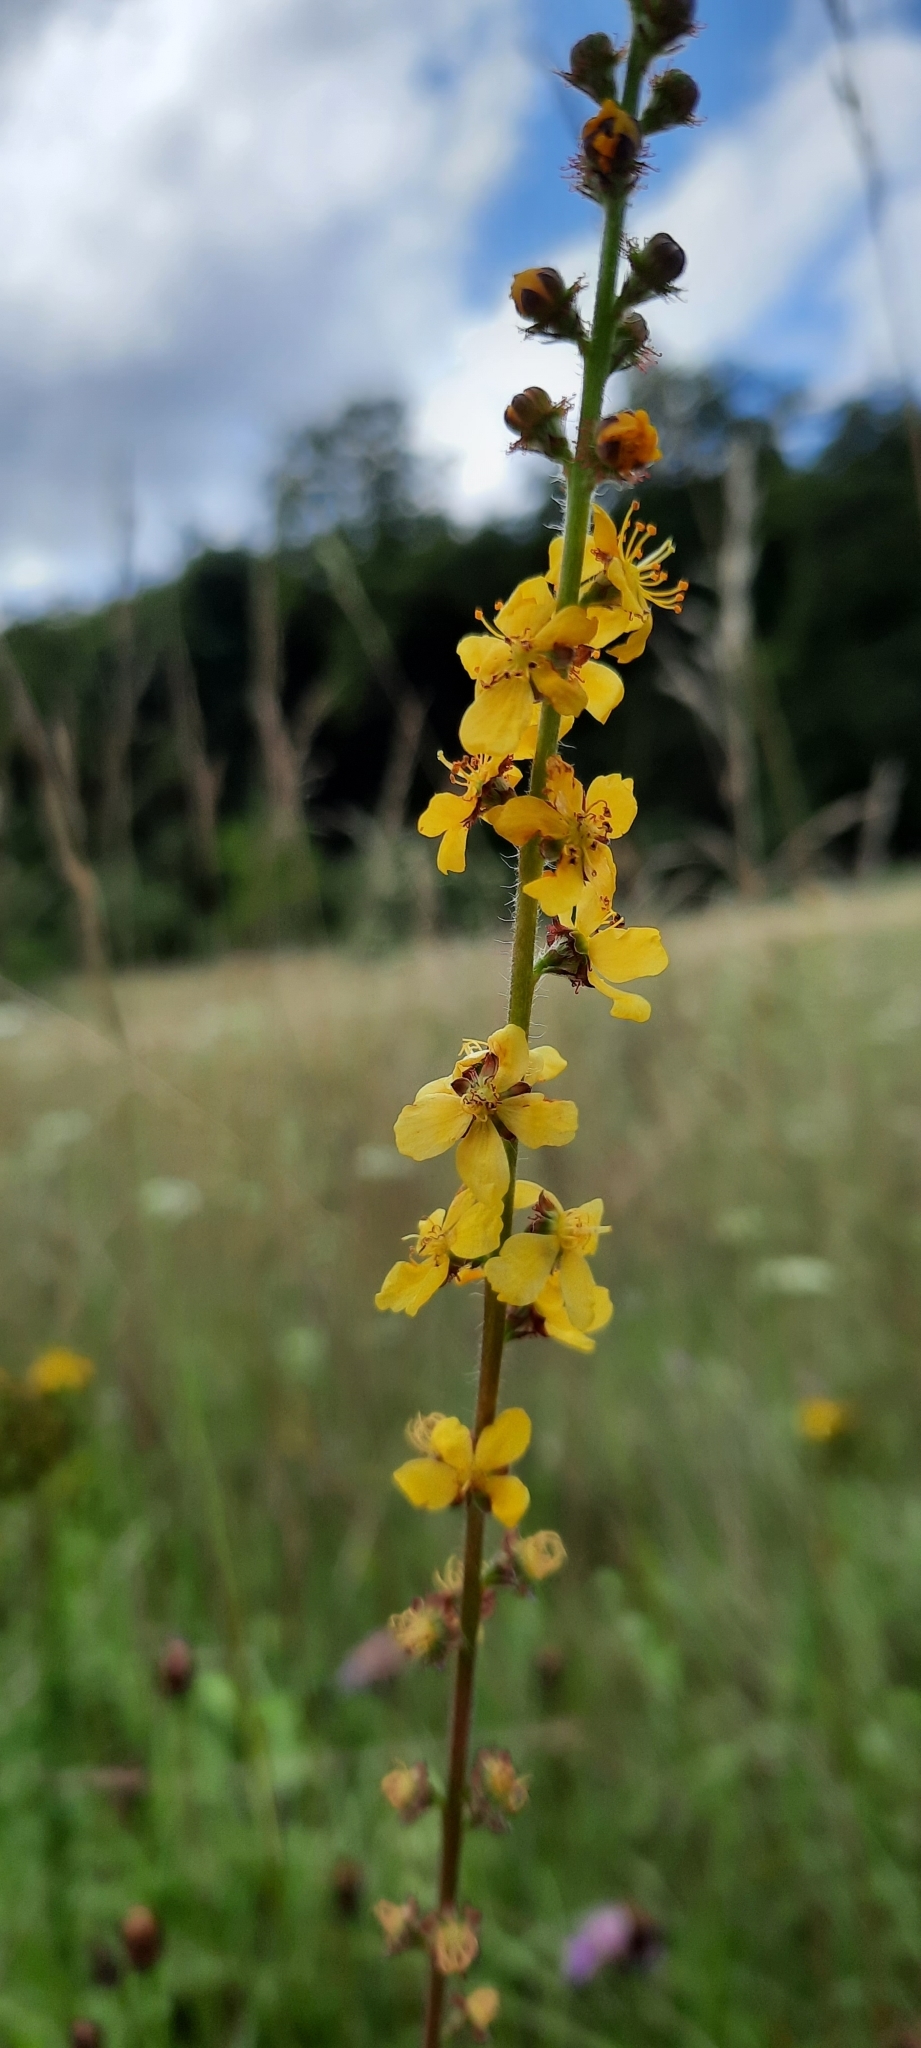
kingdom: Plantae
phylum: Tracheophyta
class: Magnoliopsida
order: Rosales
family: Rosaceae
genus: Agrimonia
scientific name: Agrimonia eupatoria
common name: Agrimony
